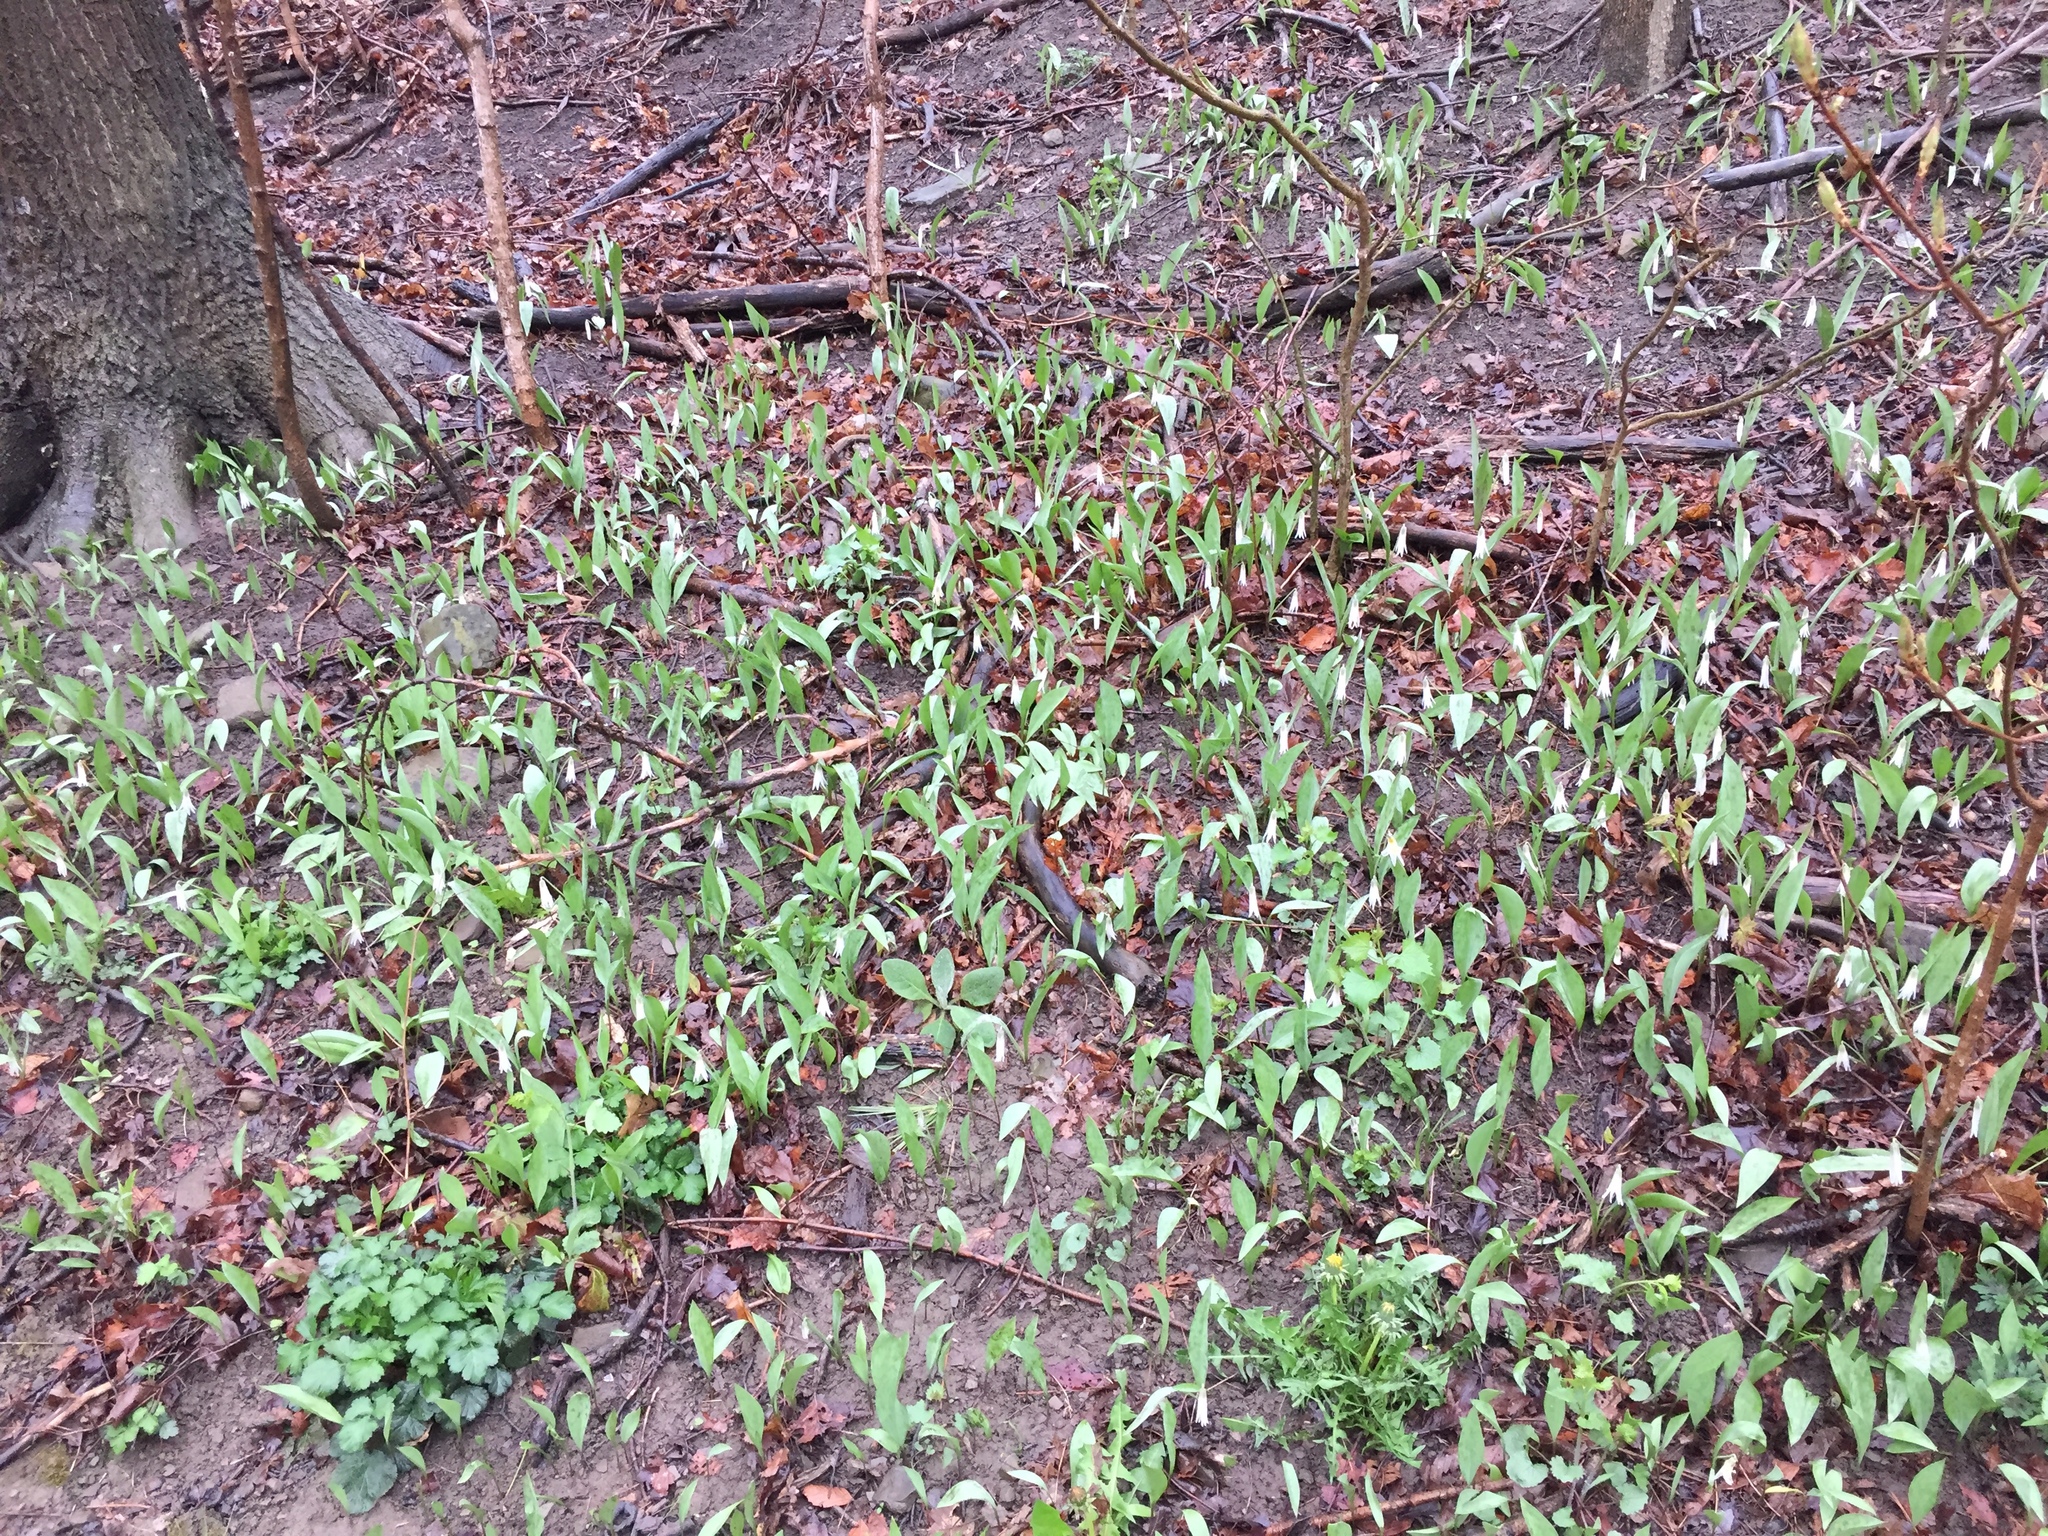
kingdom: Plantae
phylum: Tracheophyta
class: Liliopsida
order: Liliales
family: Liliaceae
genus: Erythronium
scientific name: Erythronium albidum
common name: White trout-lily
